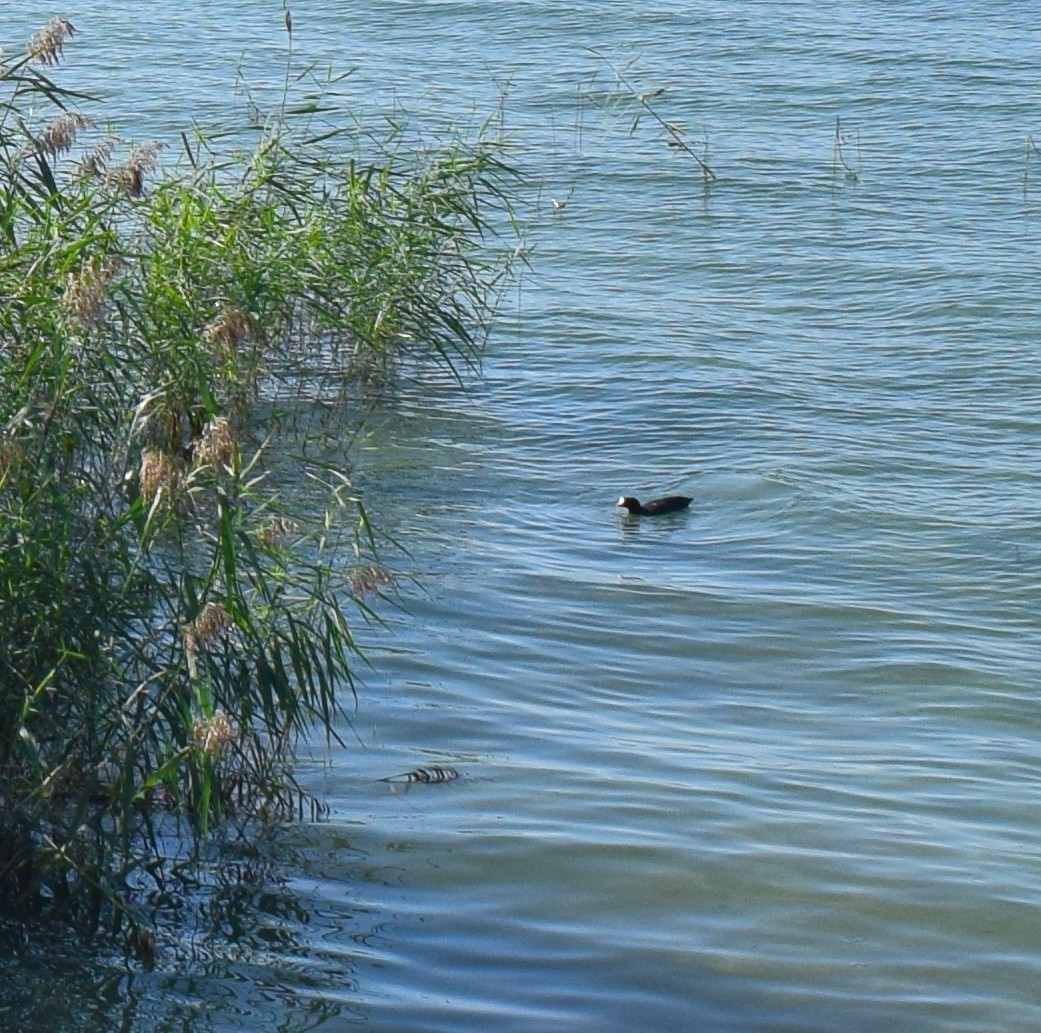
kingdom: Animalia
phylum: Chordata
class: Aves
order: Gruiformes
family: Rallidae
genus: Fulica
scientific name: Fulica atra
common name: Eurasian coot
